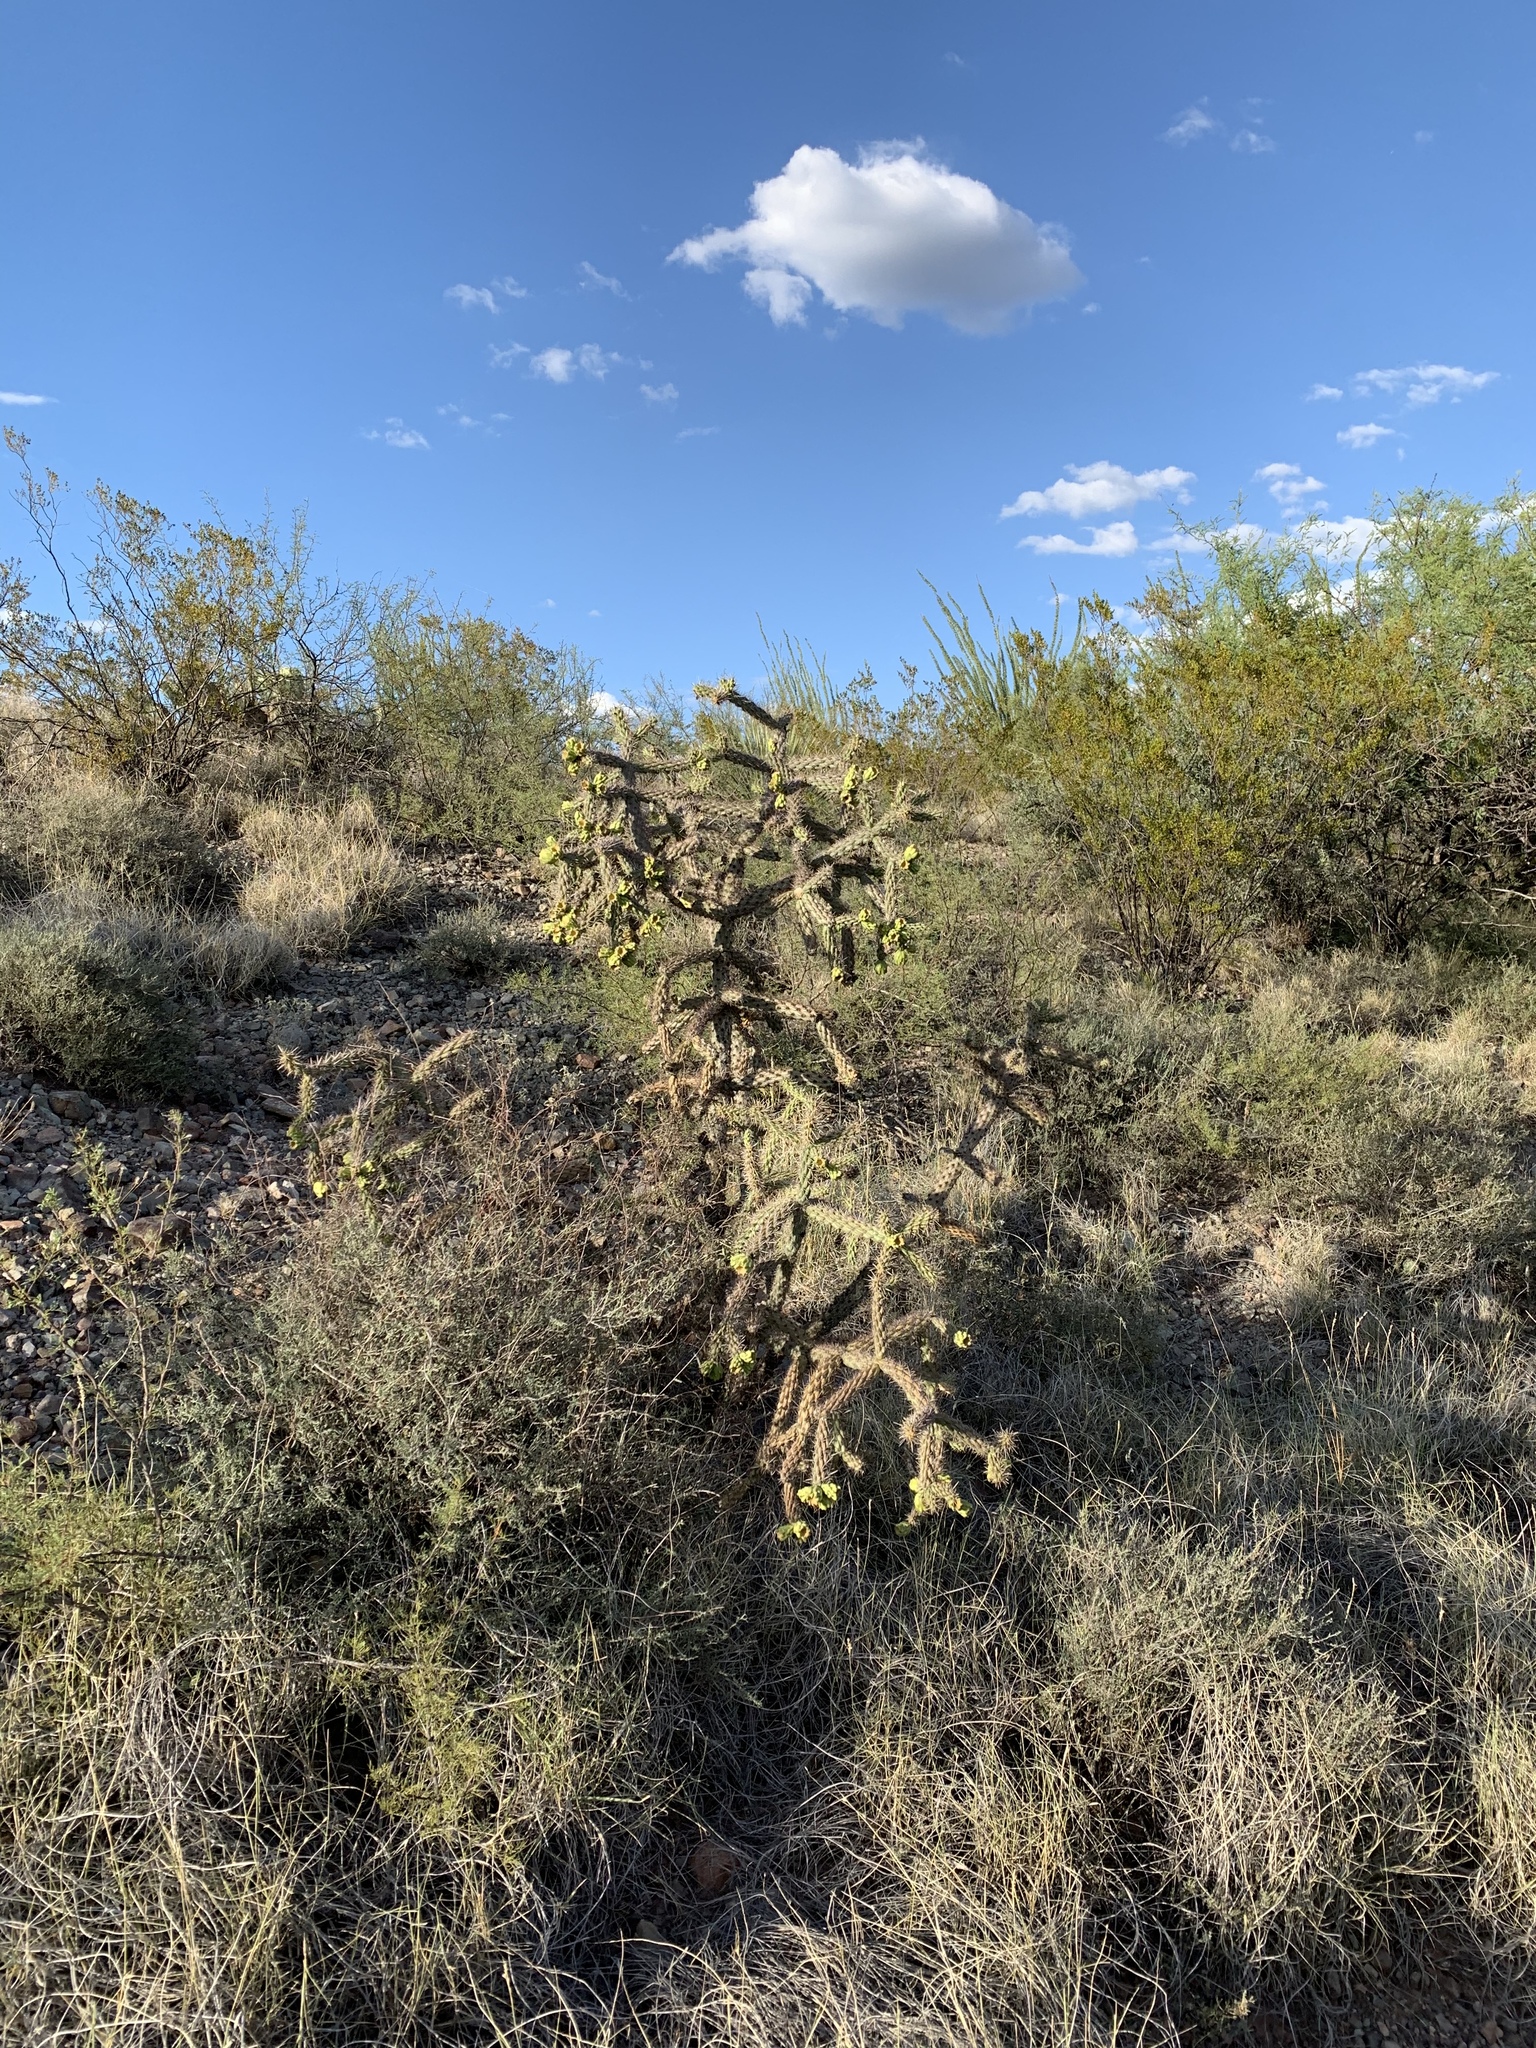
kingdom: Plantae
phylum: Tracheophyta
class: Magnoliopsida
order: Caryophyllales
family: Cactaceae
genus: Cylindropuntia
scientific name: Cylindropuntia imbricata
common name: Candelabrum cactus
